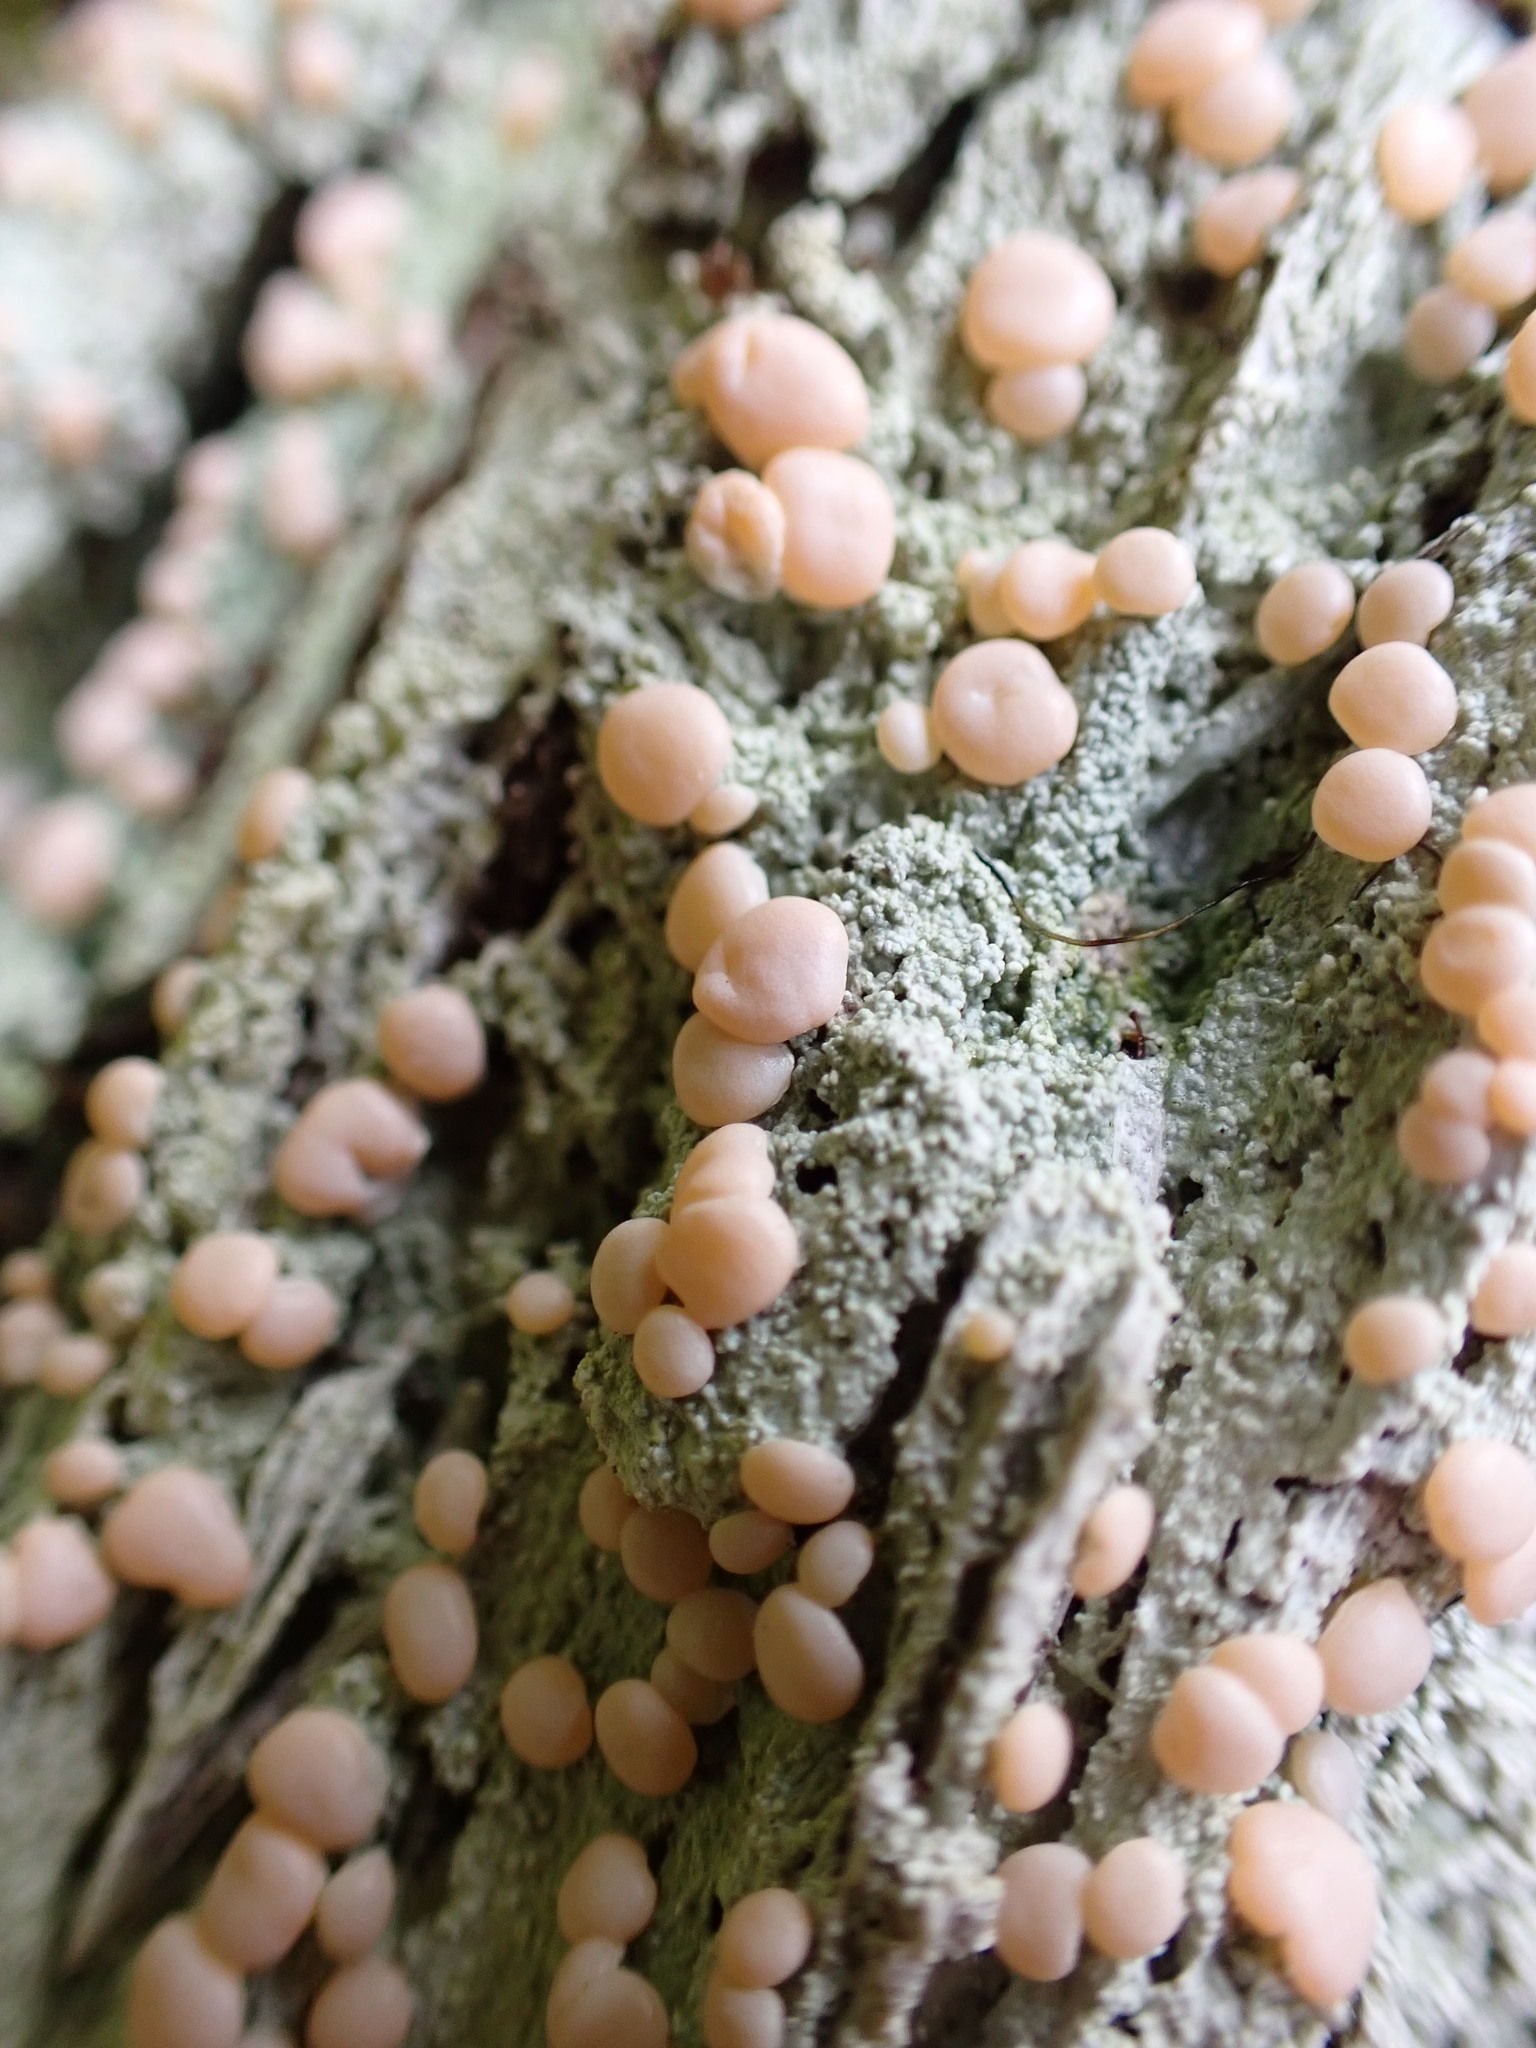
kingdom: Fungi
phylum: Ascomycota
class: Lecanoromycetes
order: Pertusariales
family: Icmadophilaceae
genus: Icmadophila
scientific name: Icmadophila ericetorum
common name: Candy lichen
